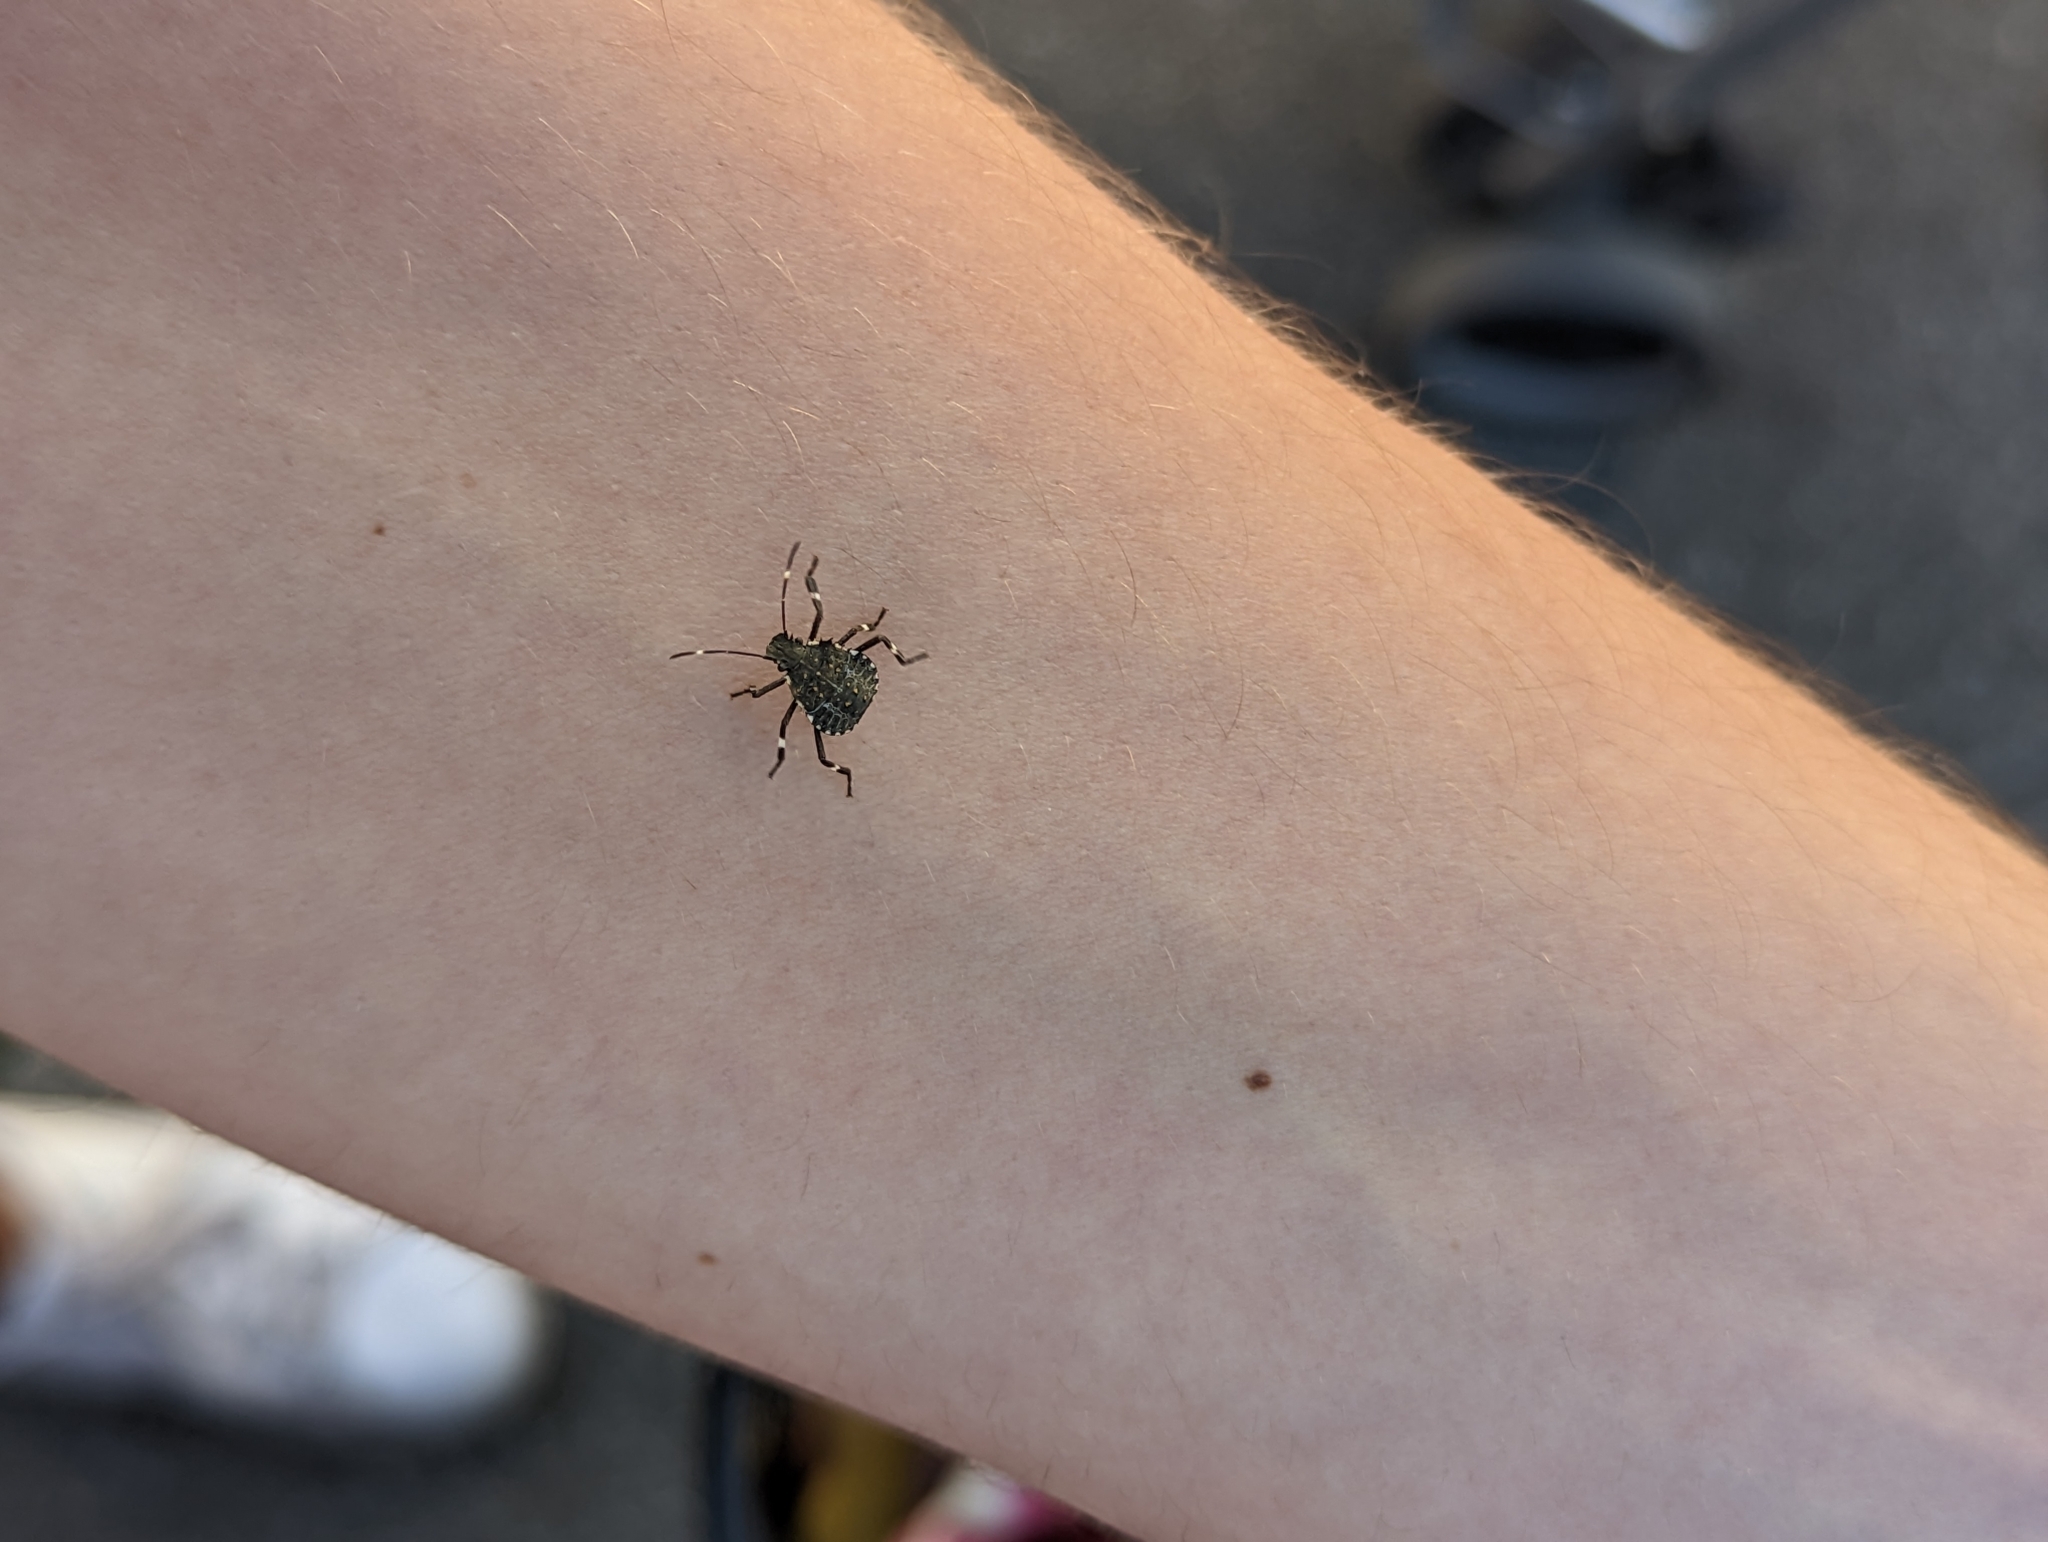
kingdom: Animalia
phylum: Arthropoda
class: Insecta
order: Hemiptera
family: Pentatomidae
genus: Halyomorpha
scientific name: Halyomorpha halys
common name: Brown marmorated stink bug
